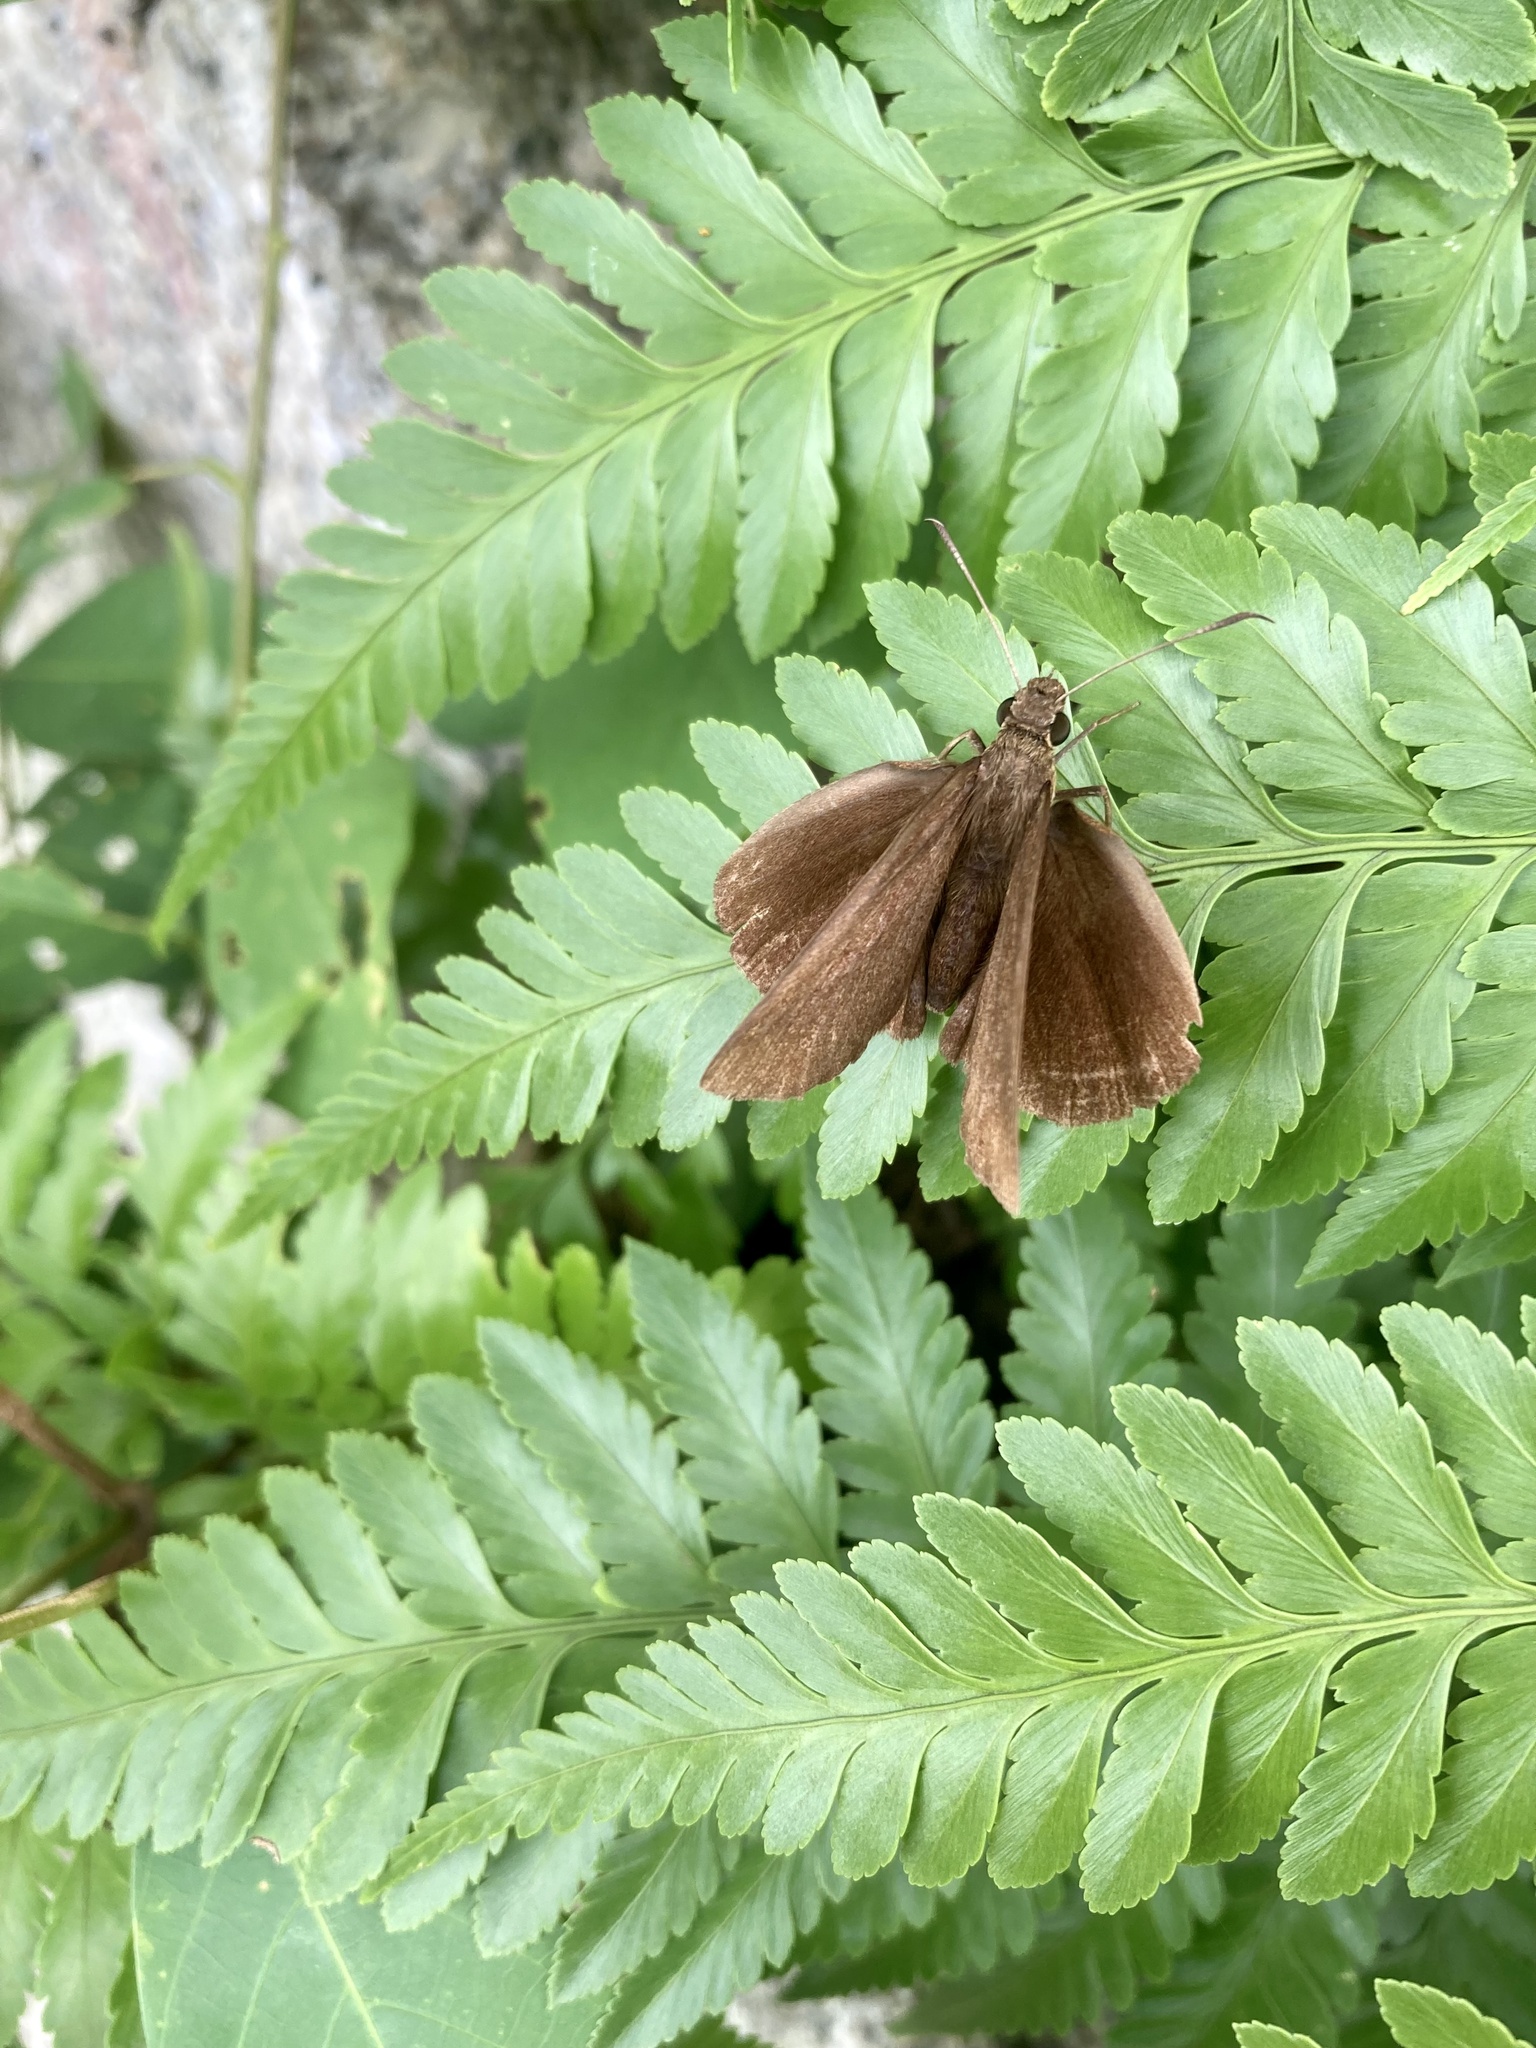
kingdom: Animalia
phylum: Arthropoda
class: Insecta
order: Lepidoptera
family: Hesperiidae
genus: Ancistroides
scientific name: Ancistroides nigrita
